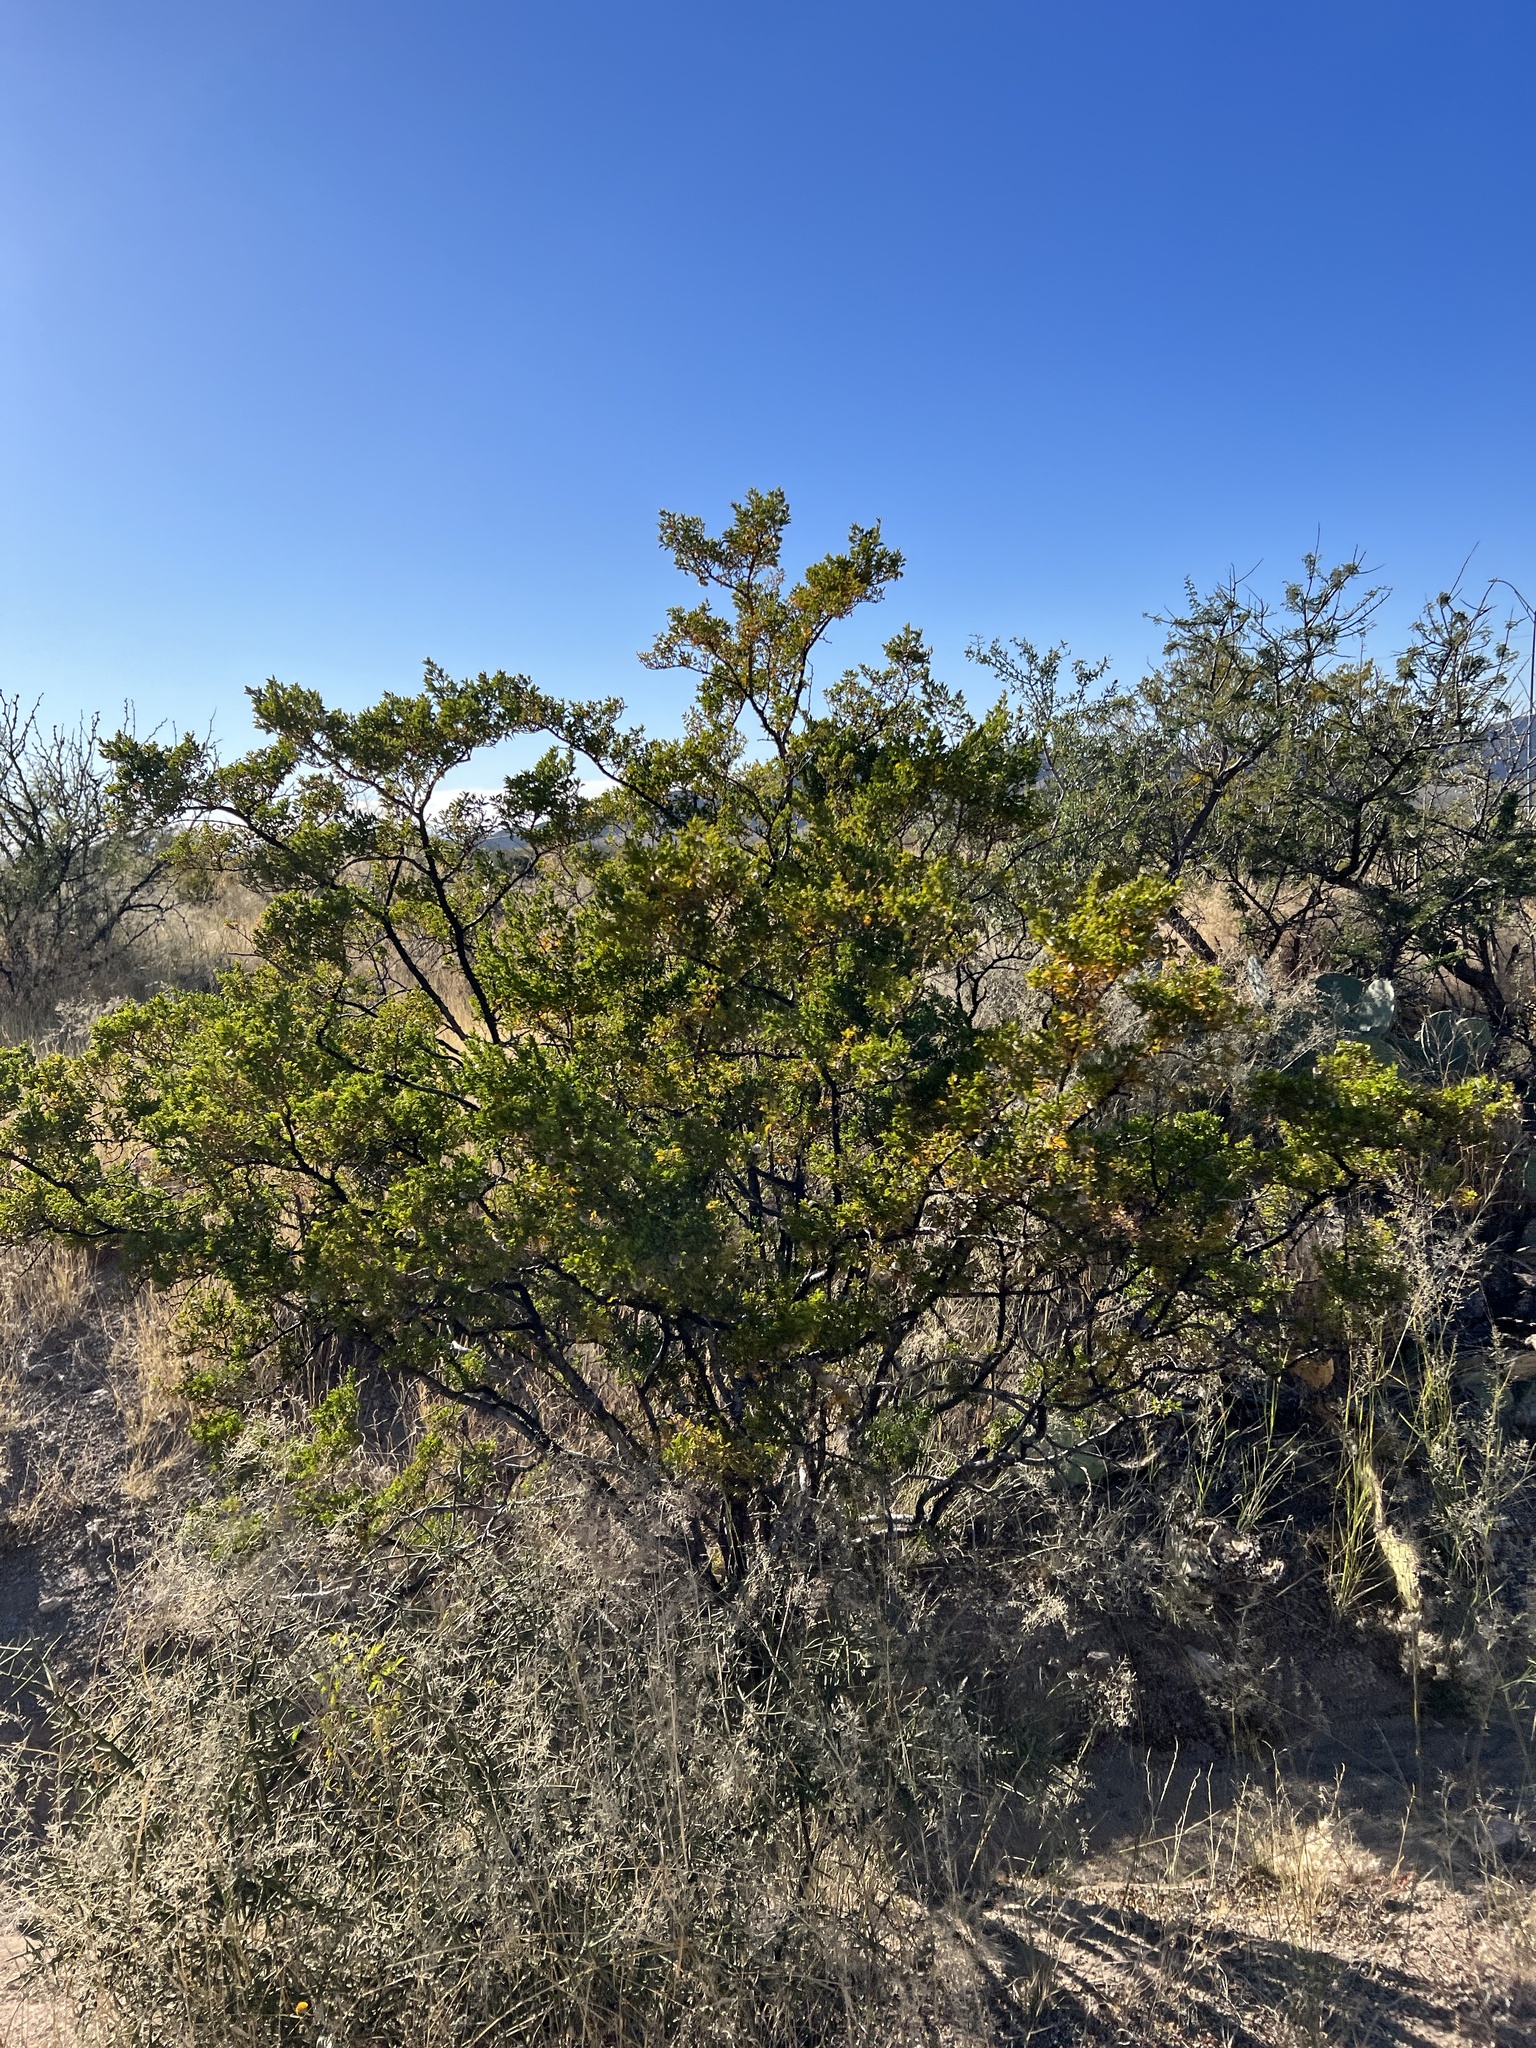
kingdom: Plantae
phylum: Tracheophyta
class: Magnoliopsida
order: Zygophyllales
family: Zygophyllaceae
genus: Larrea
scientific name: Larrea tridentata
